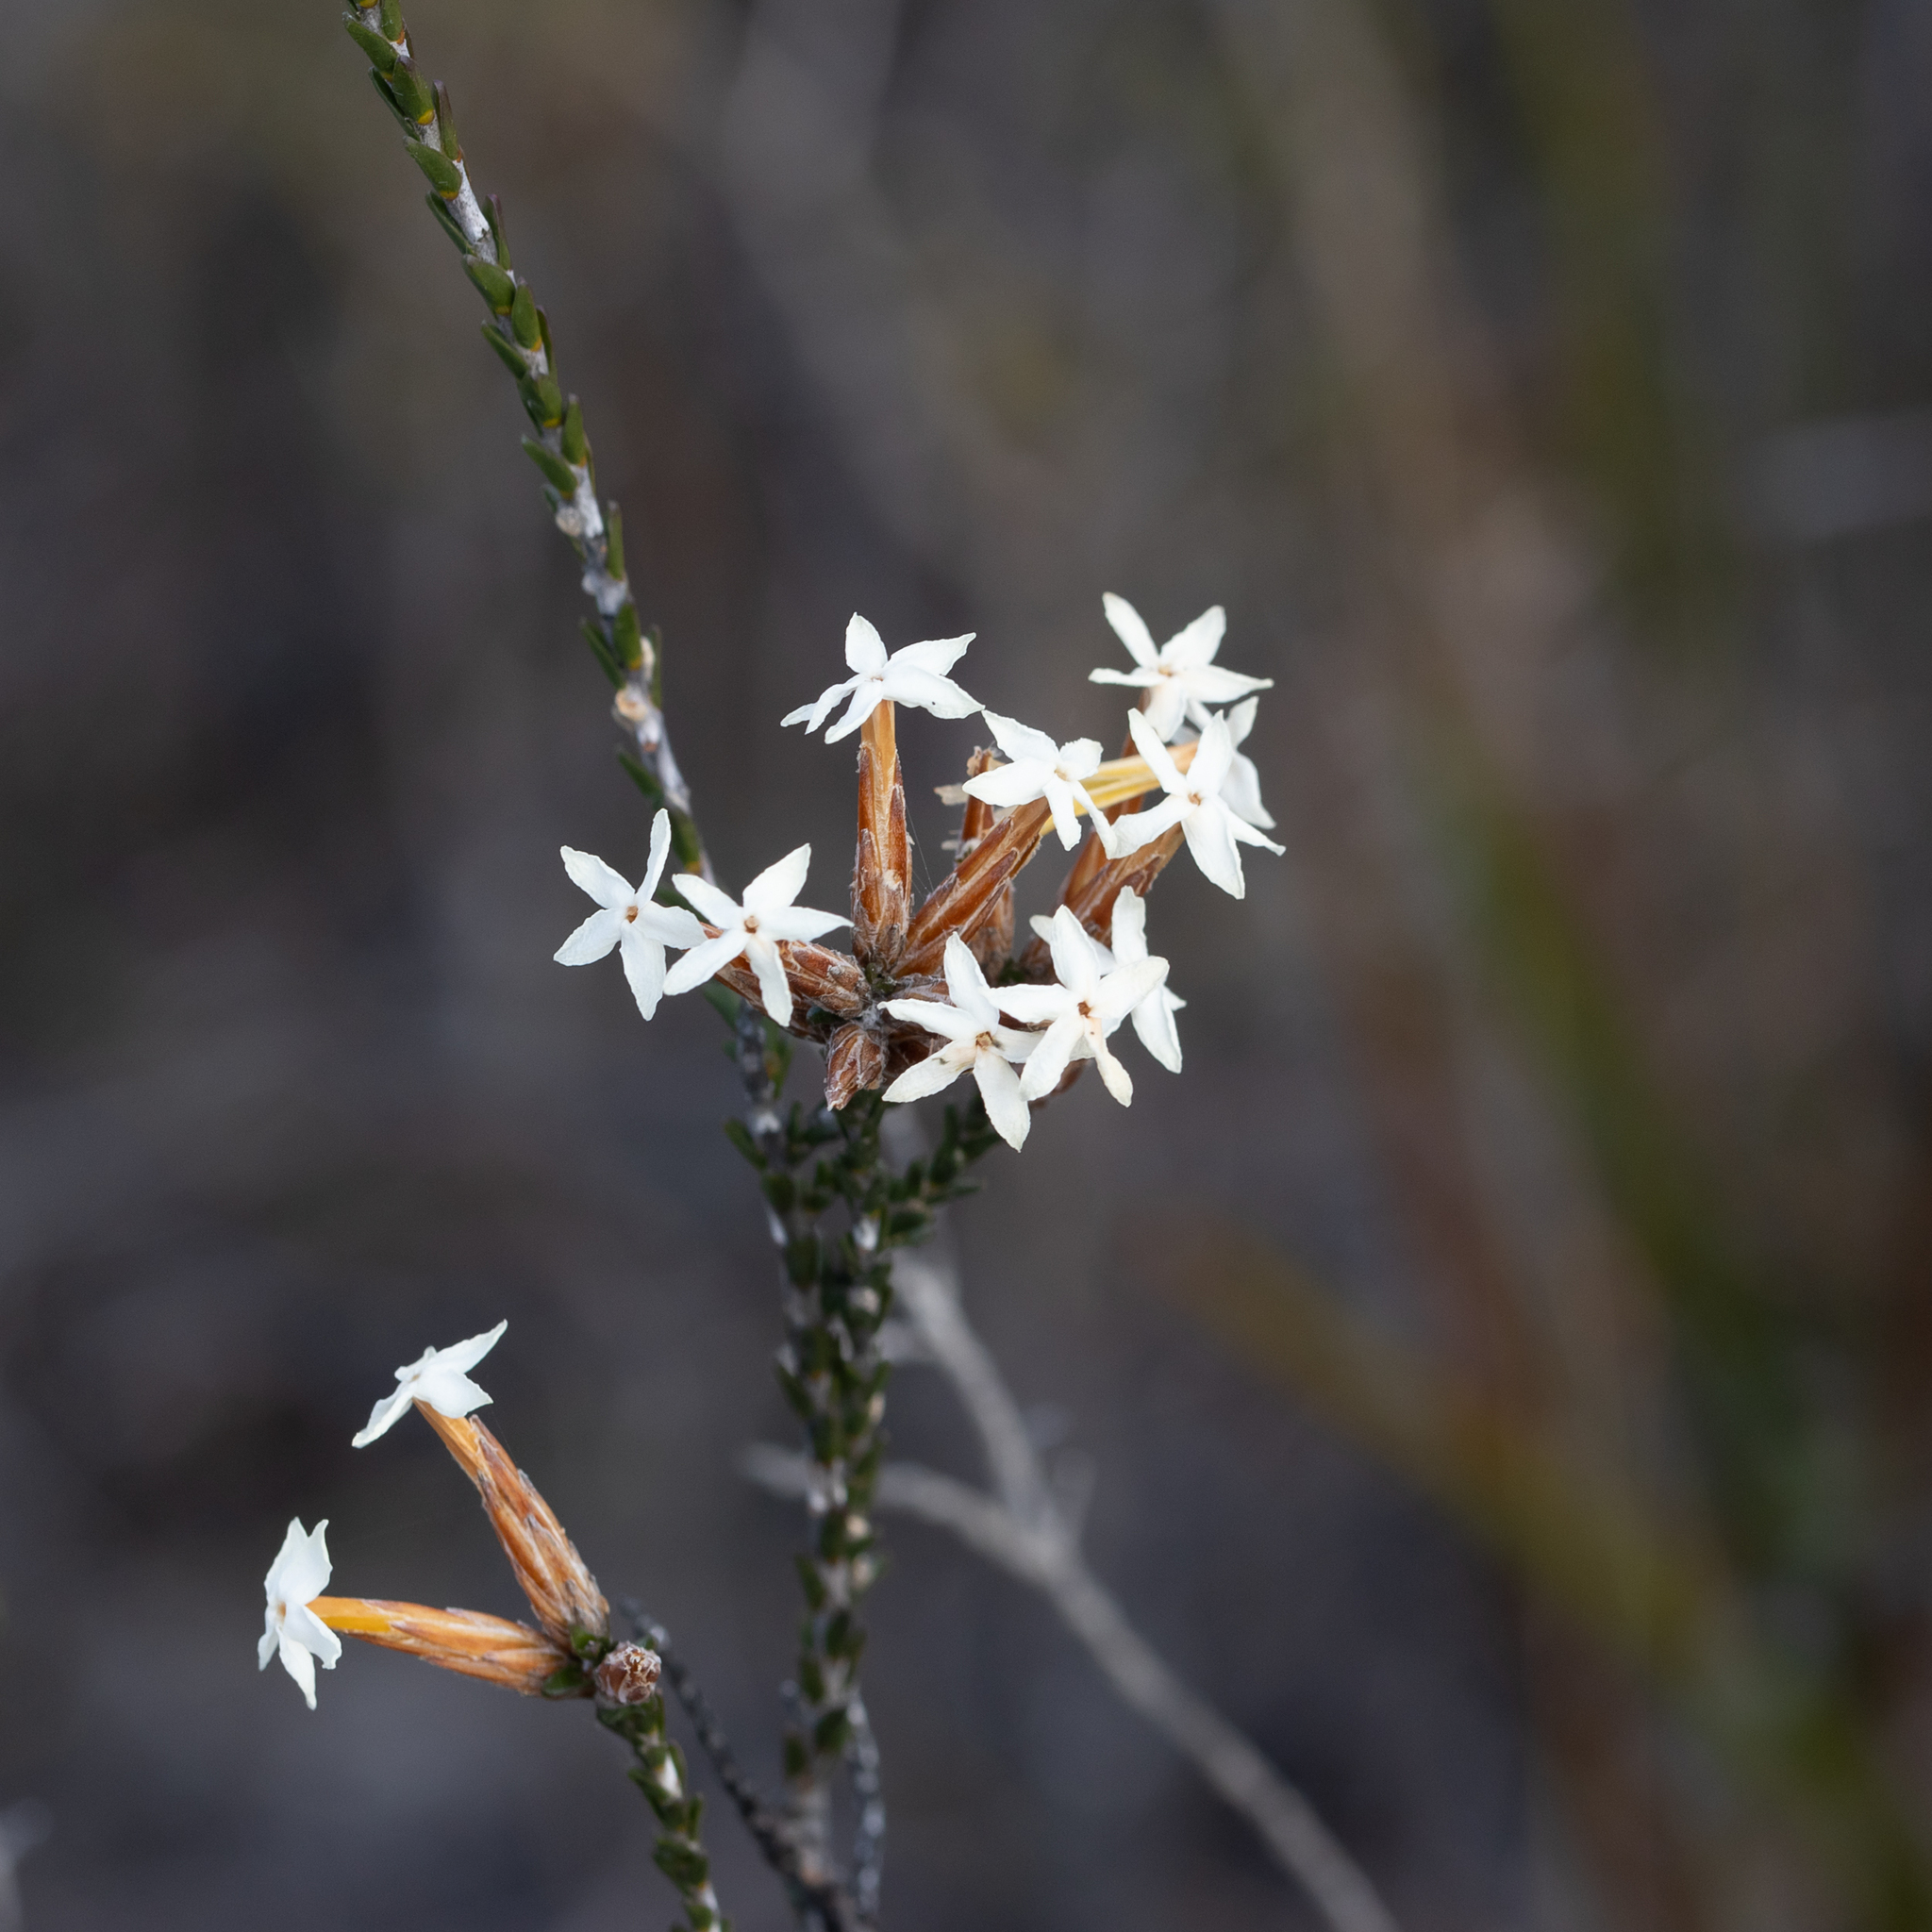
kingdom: Plantae
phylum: Tracheophyta
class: Magnoliopsida
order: Ericales
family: Ericaceae
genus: Lysinema
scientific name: Lysinema ciliatum
